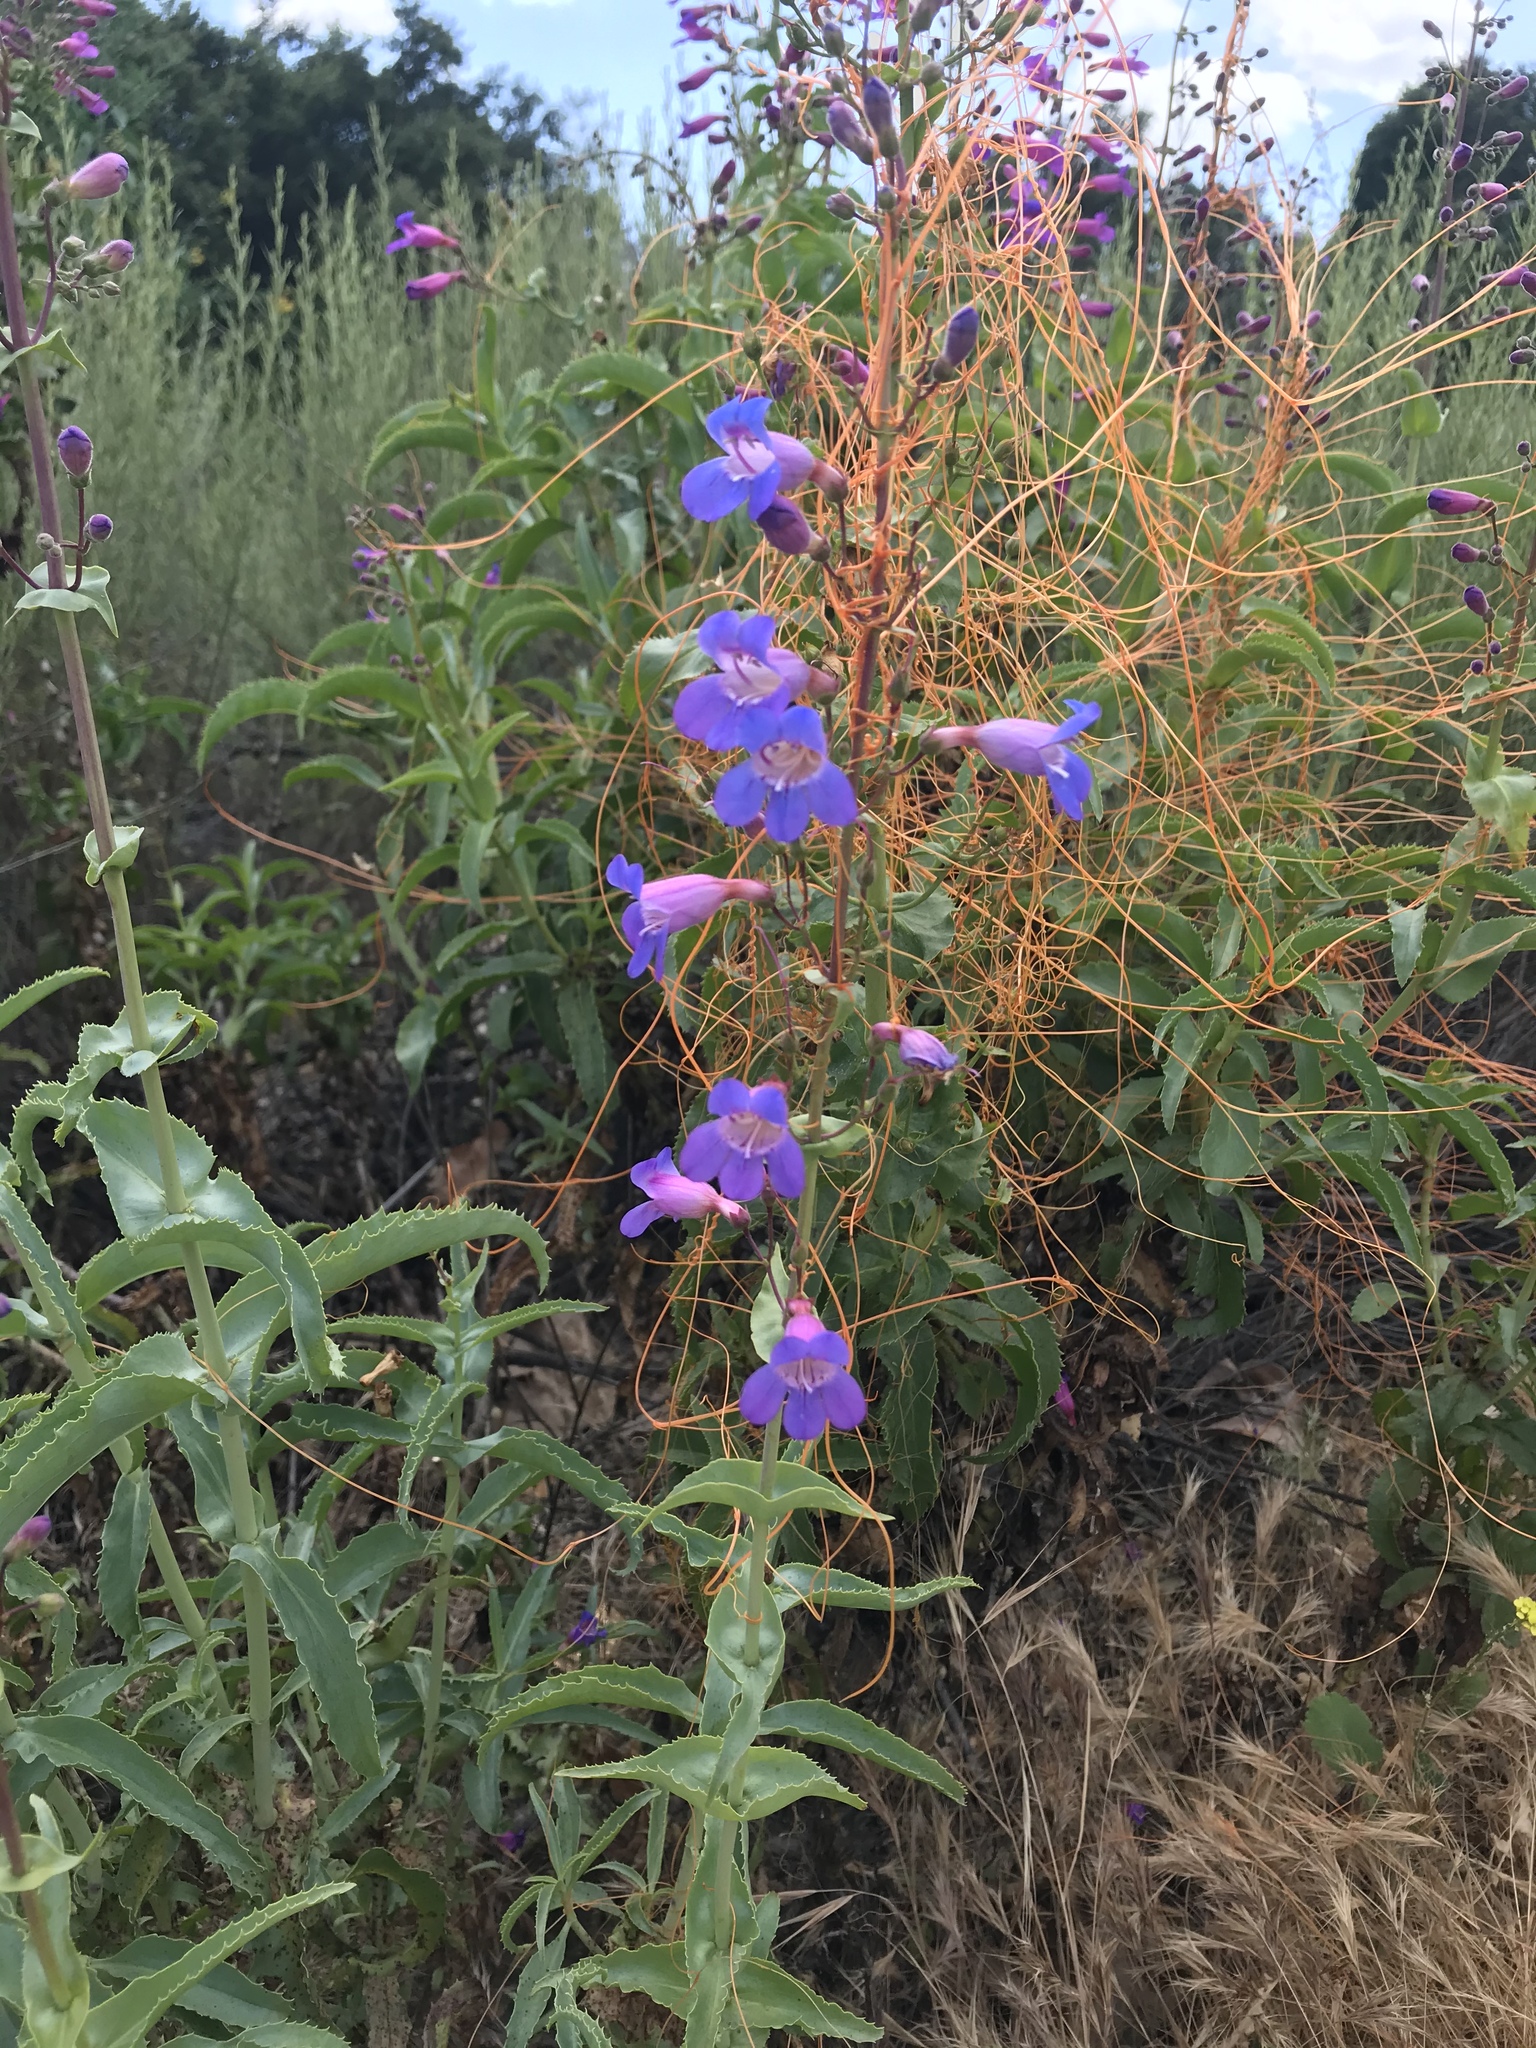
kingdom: Plantae
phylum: Tracheophyta
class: Magnoliopsida
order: Lamiales
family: Plantaginaceae
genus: Penstemon
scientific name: Penstemon spectabilis
